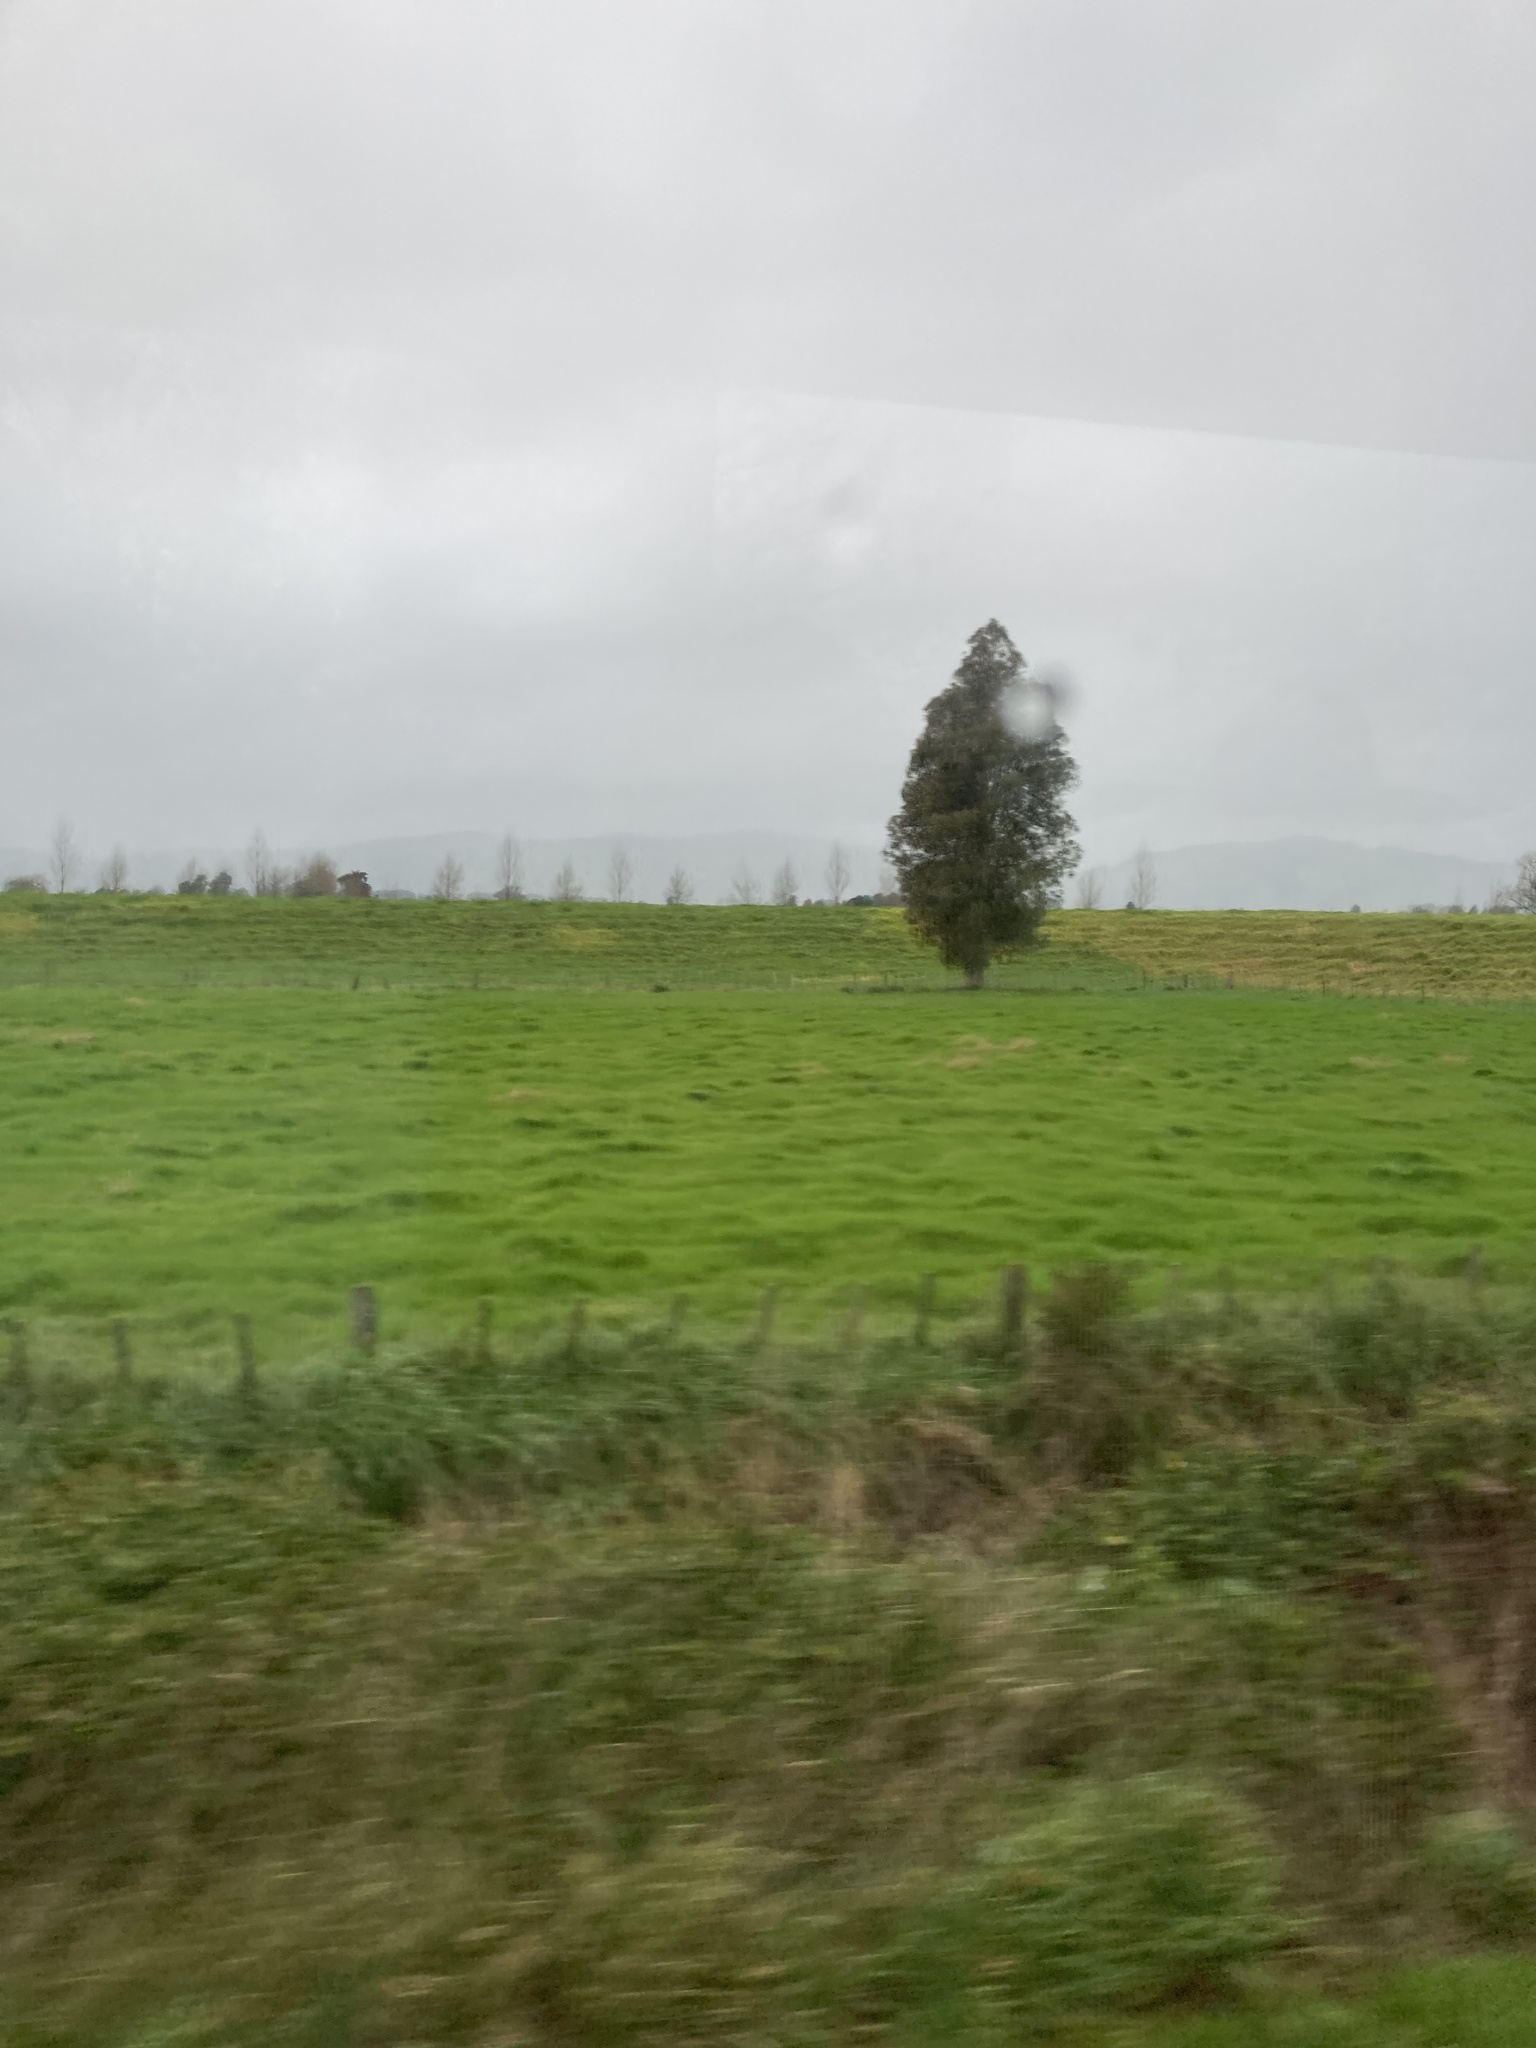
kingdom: Plantae
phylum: Tracheophyta
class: Pinopsida
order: Pinales
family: Podocarpaceae
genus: Dacrycarpus
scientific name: Dacrycarpus dacrydioides
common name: White pine
